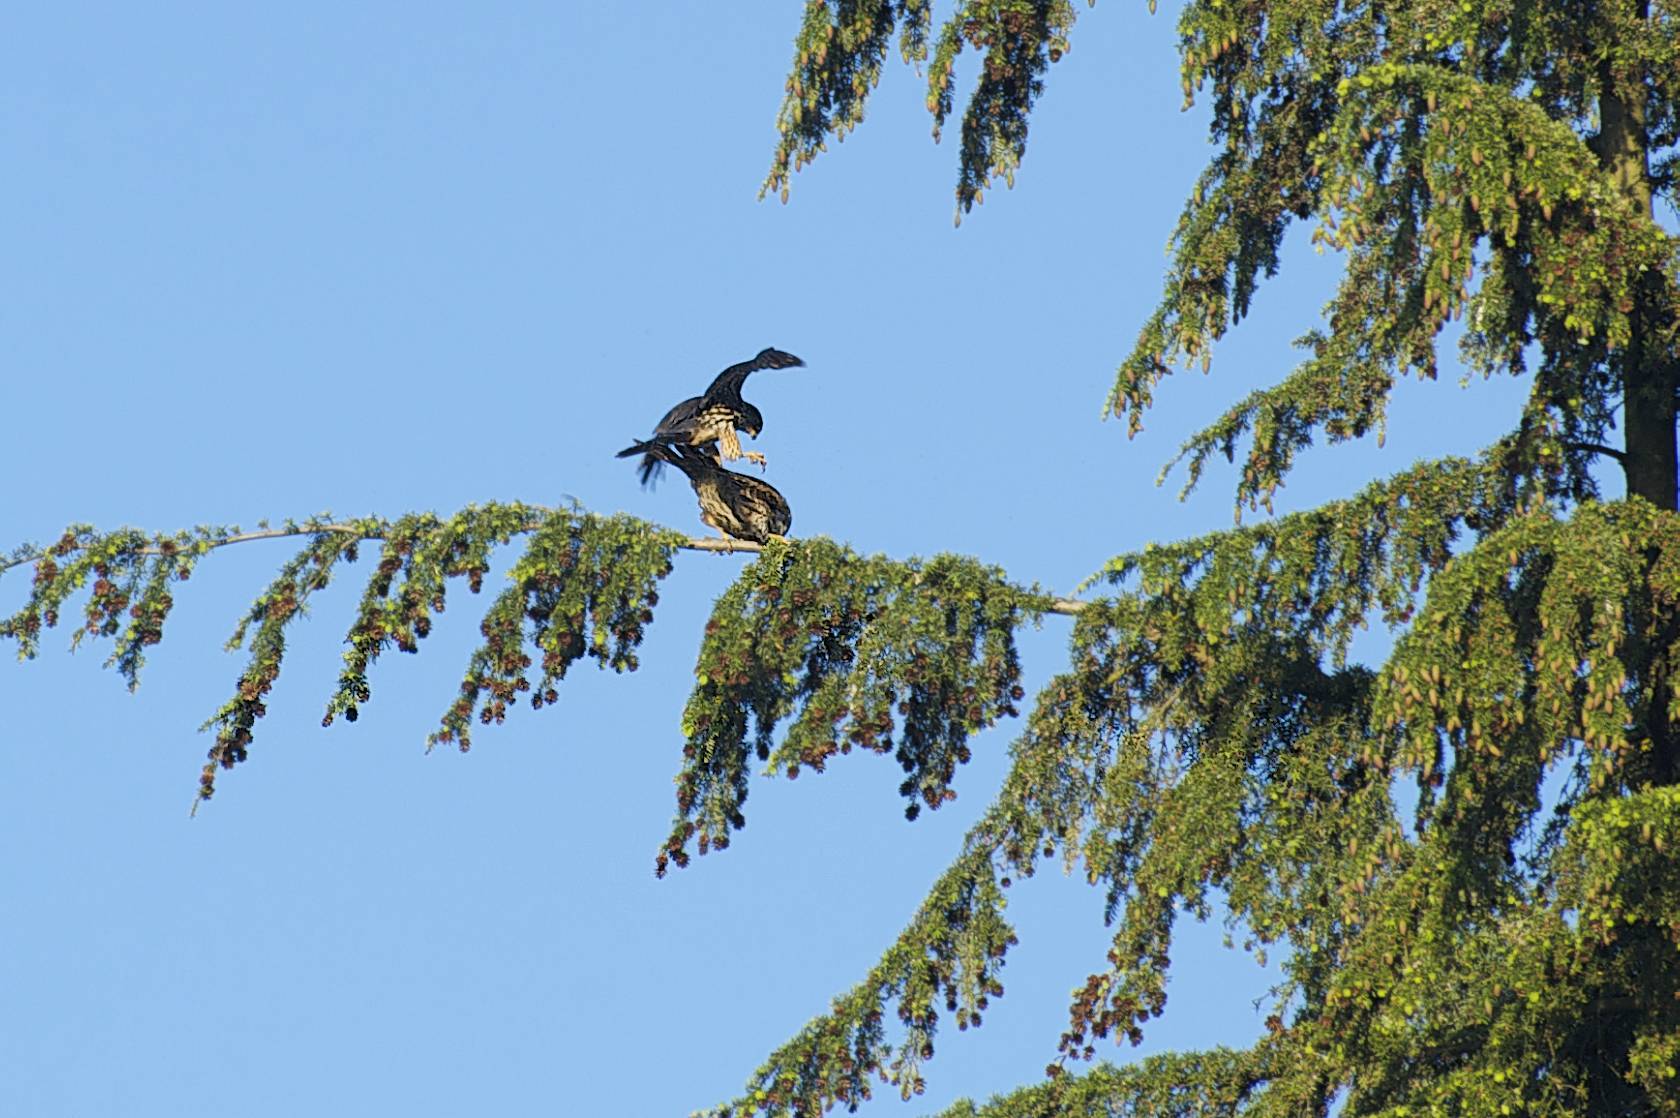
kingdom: Animalia
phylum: Chordata
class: Aves
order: Falconiformes
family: Falconidae
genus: Falco
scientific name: Falco columbarius
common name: Merlin
